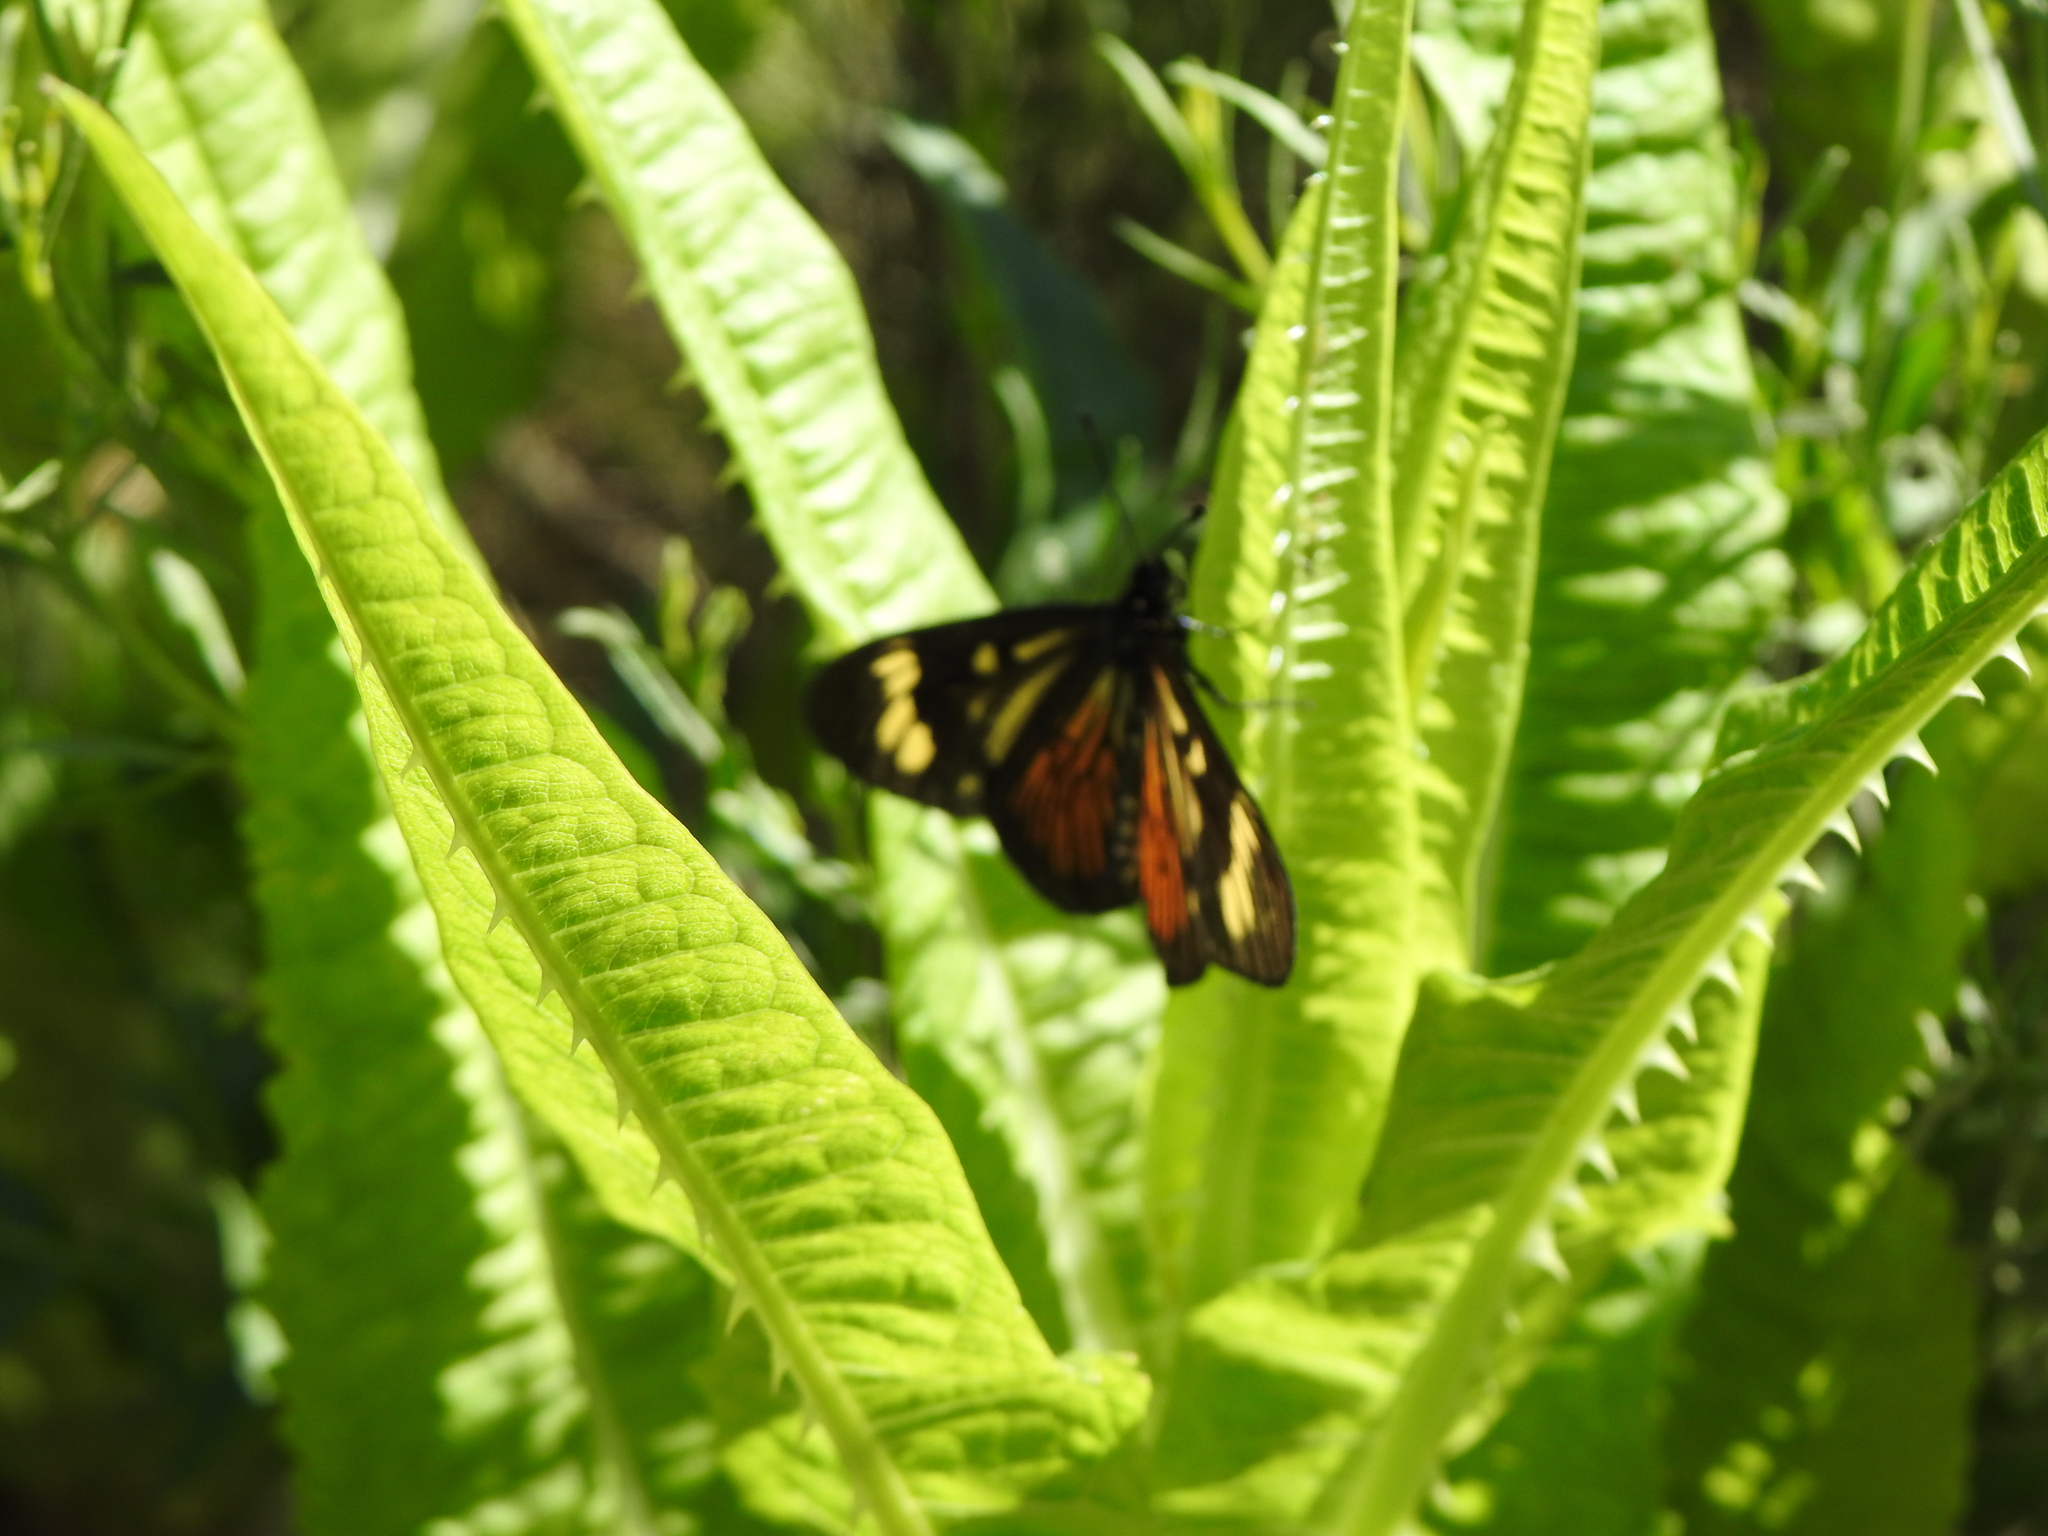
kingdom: Animalia
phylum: Arthropoda
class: Insecta
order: Lepidoptera
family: Nymphalidae
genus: Actinote
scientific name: Actinote pellenea
